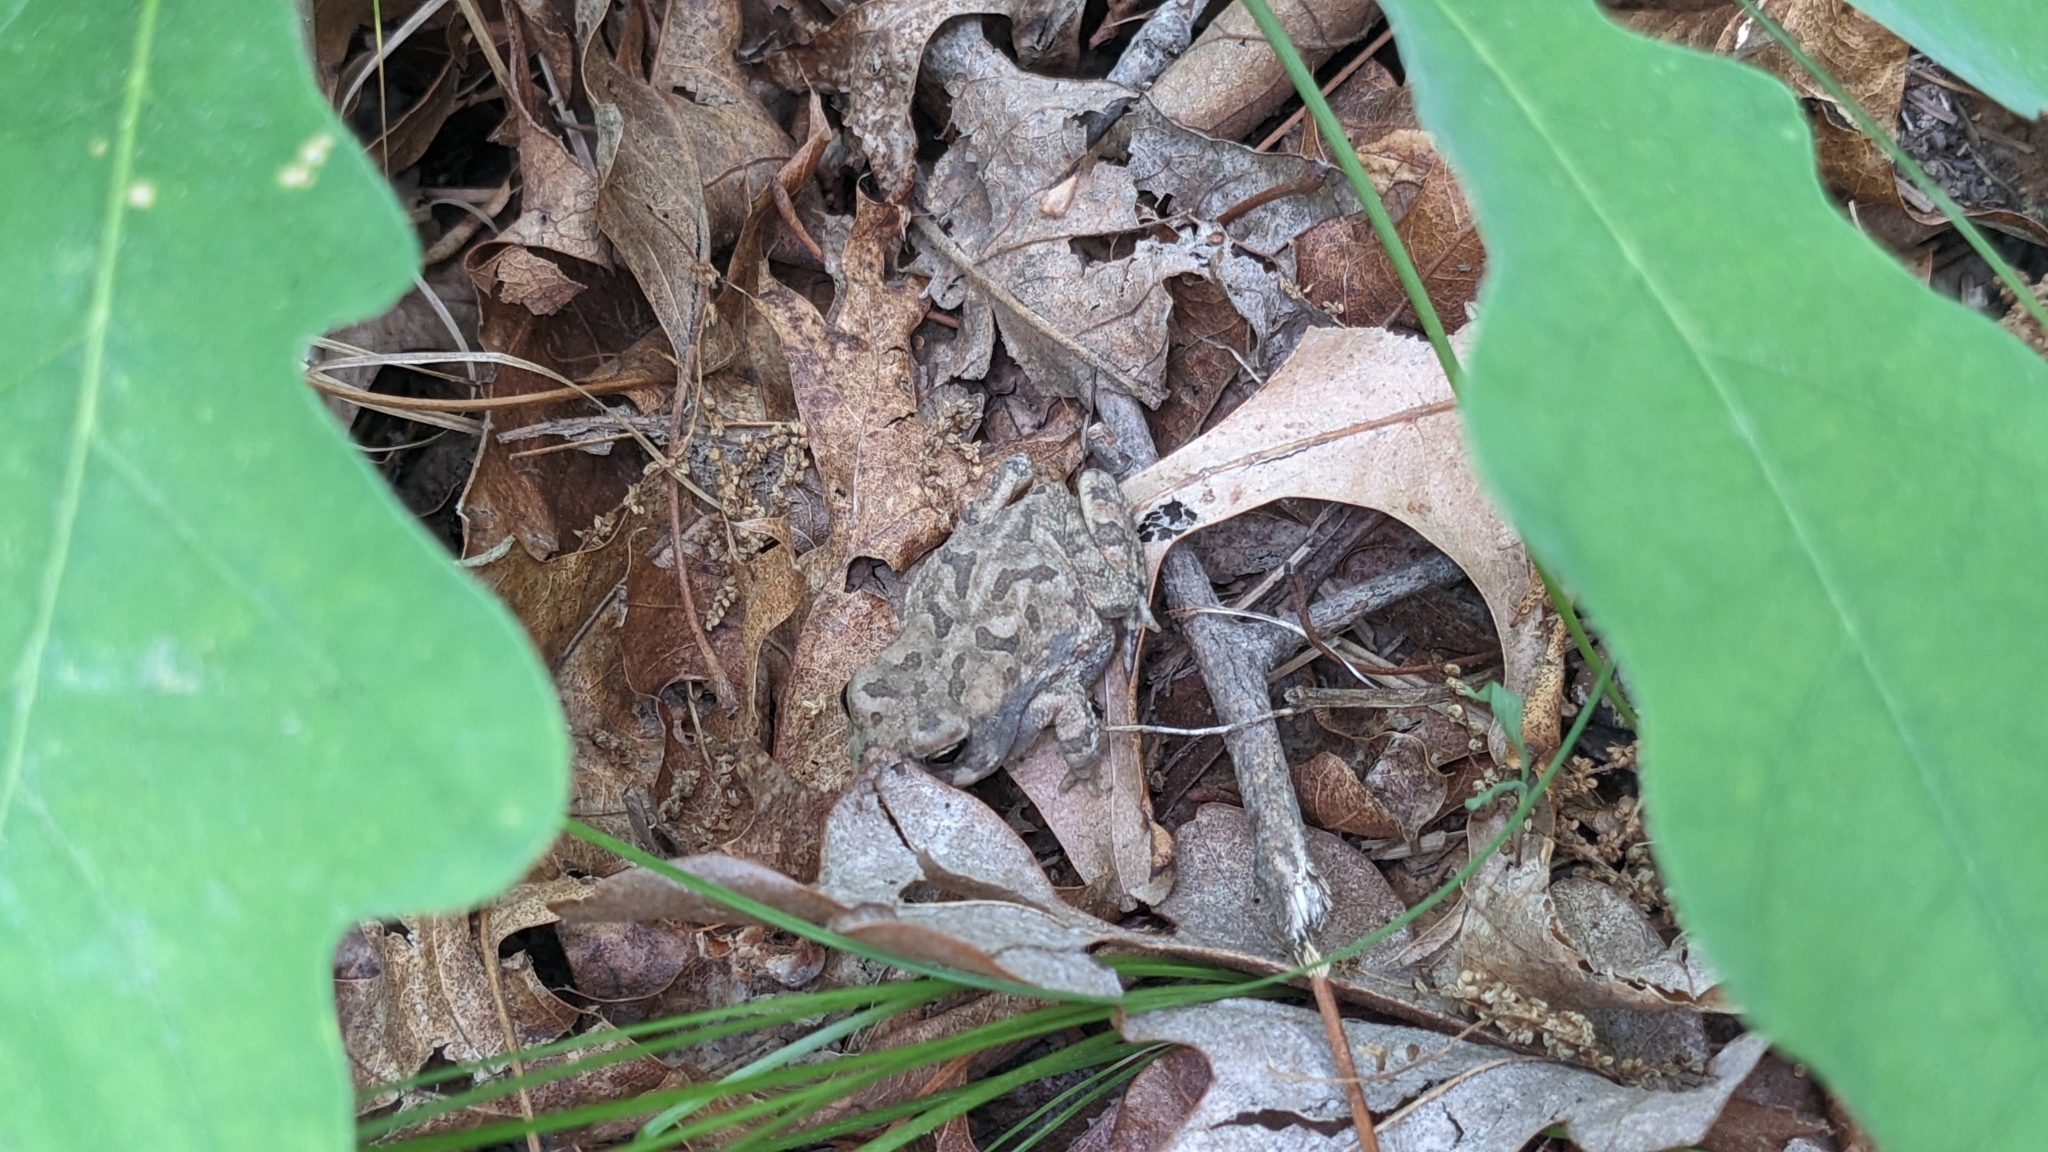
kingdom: Animalia
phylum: Chordata
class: Amphibia
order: Anura
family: Bufonidae
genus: Anaxyrus
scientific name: Anaxyrus fowleri
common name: Fowler's toad
